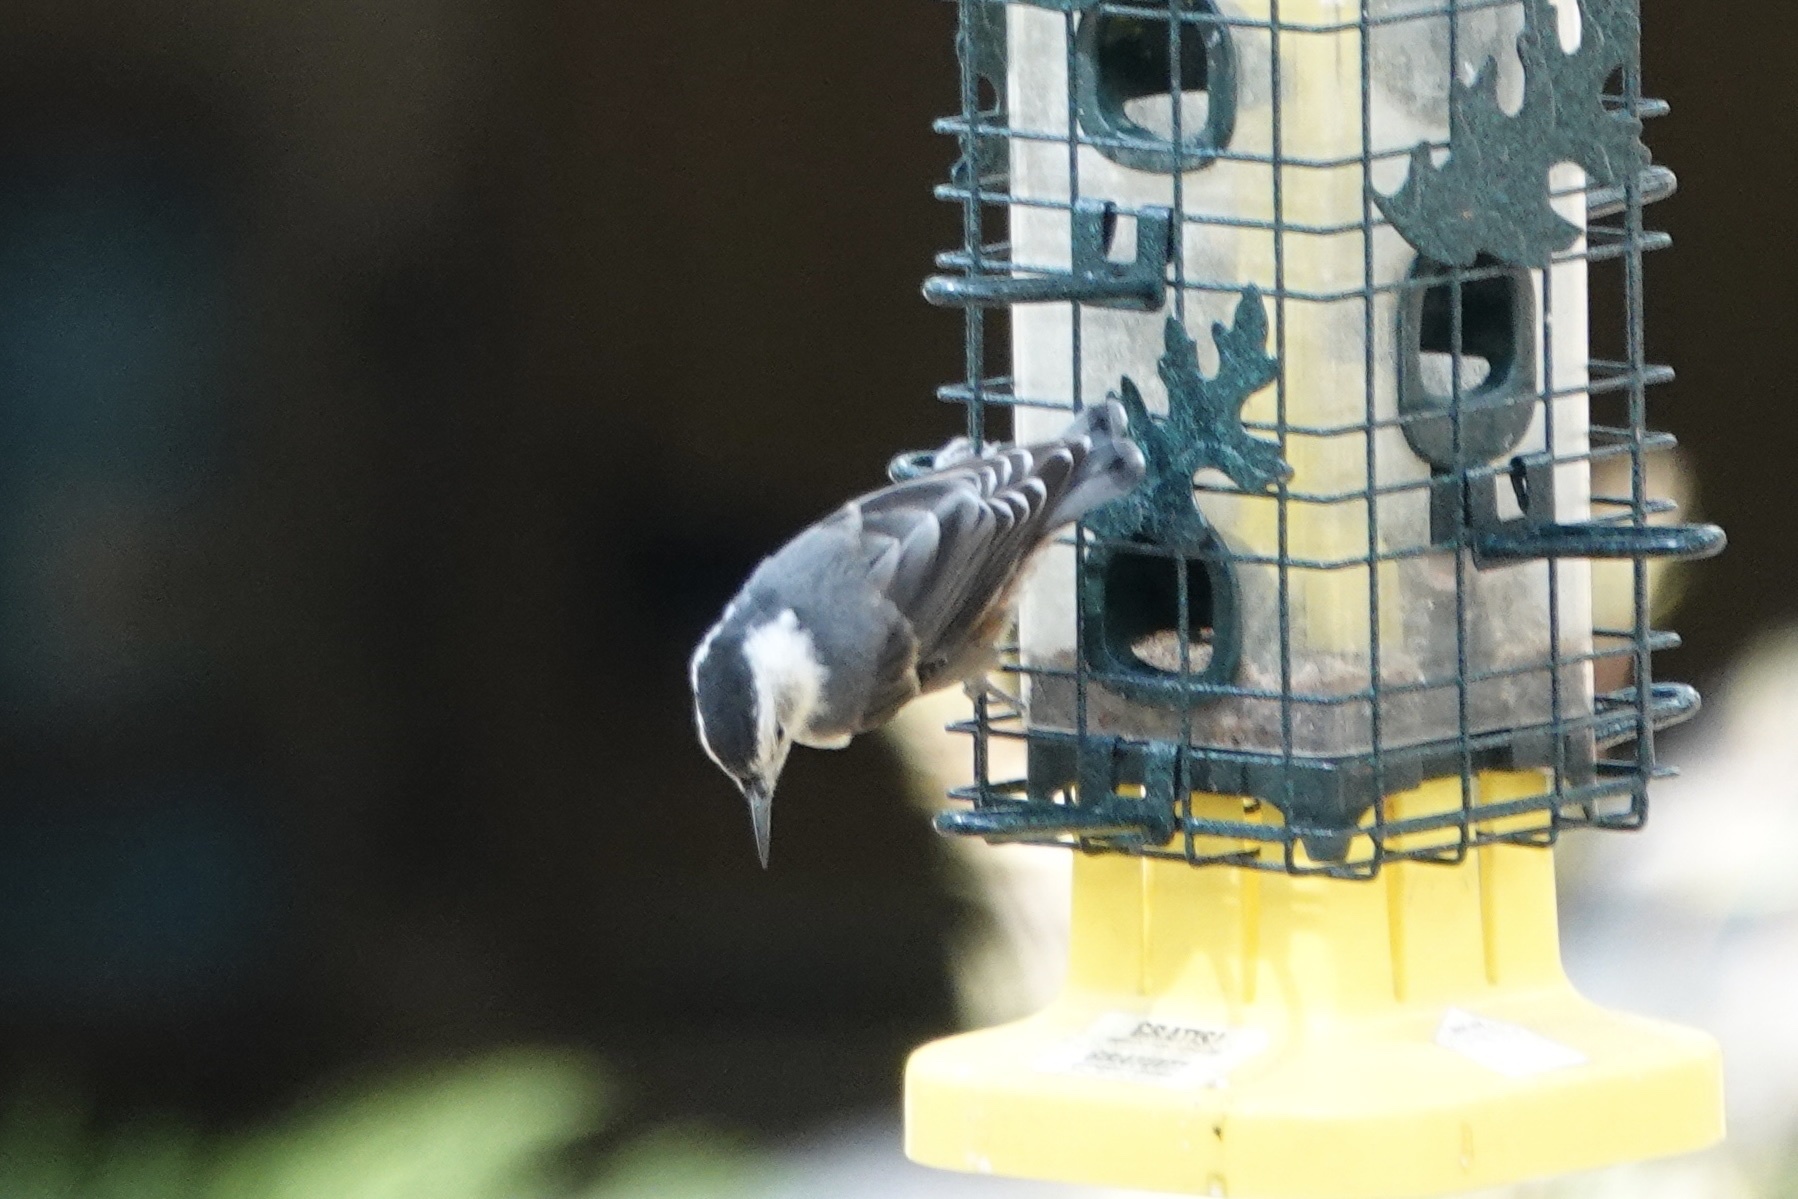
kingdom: Animalia
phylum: Chordata
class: Aves
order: Passeriformes
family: Sittidae
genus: Sitta
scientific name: Sitta carolinensis
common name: White-breasted nuthatch
